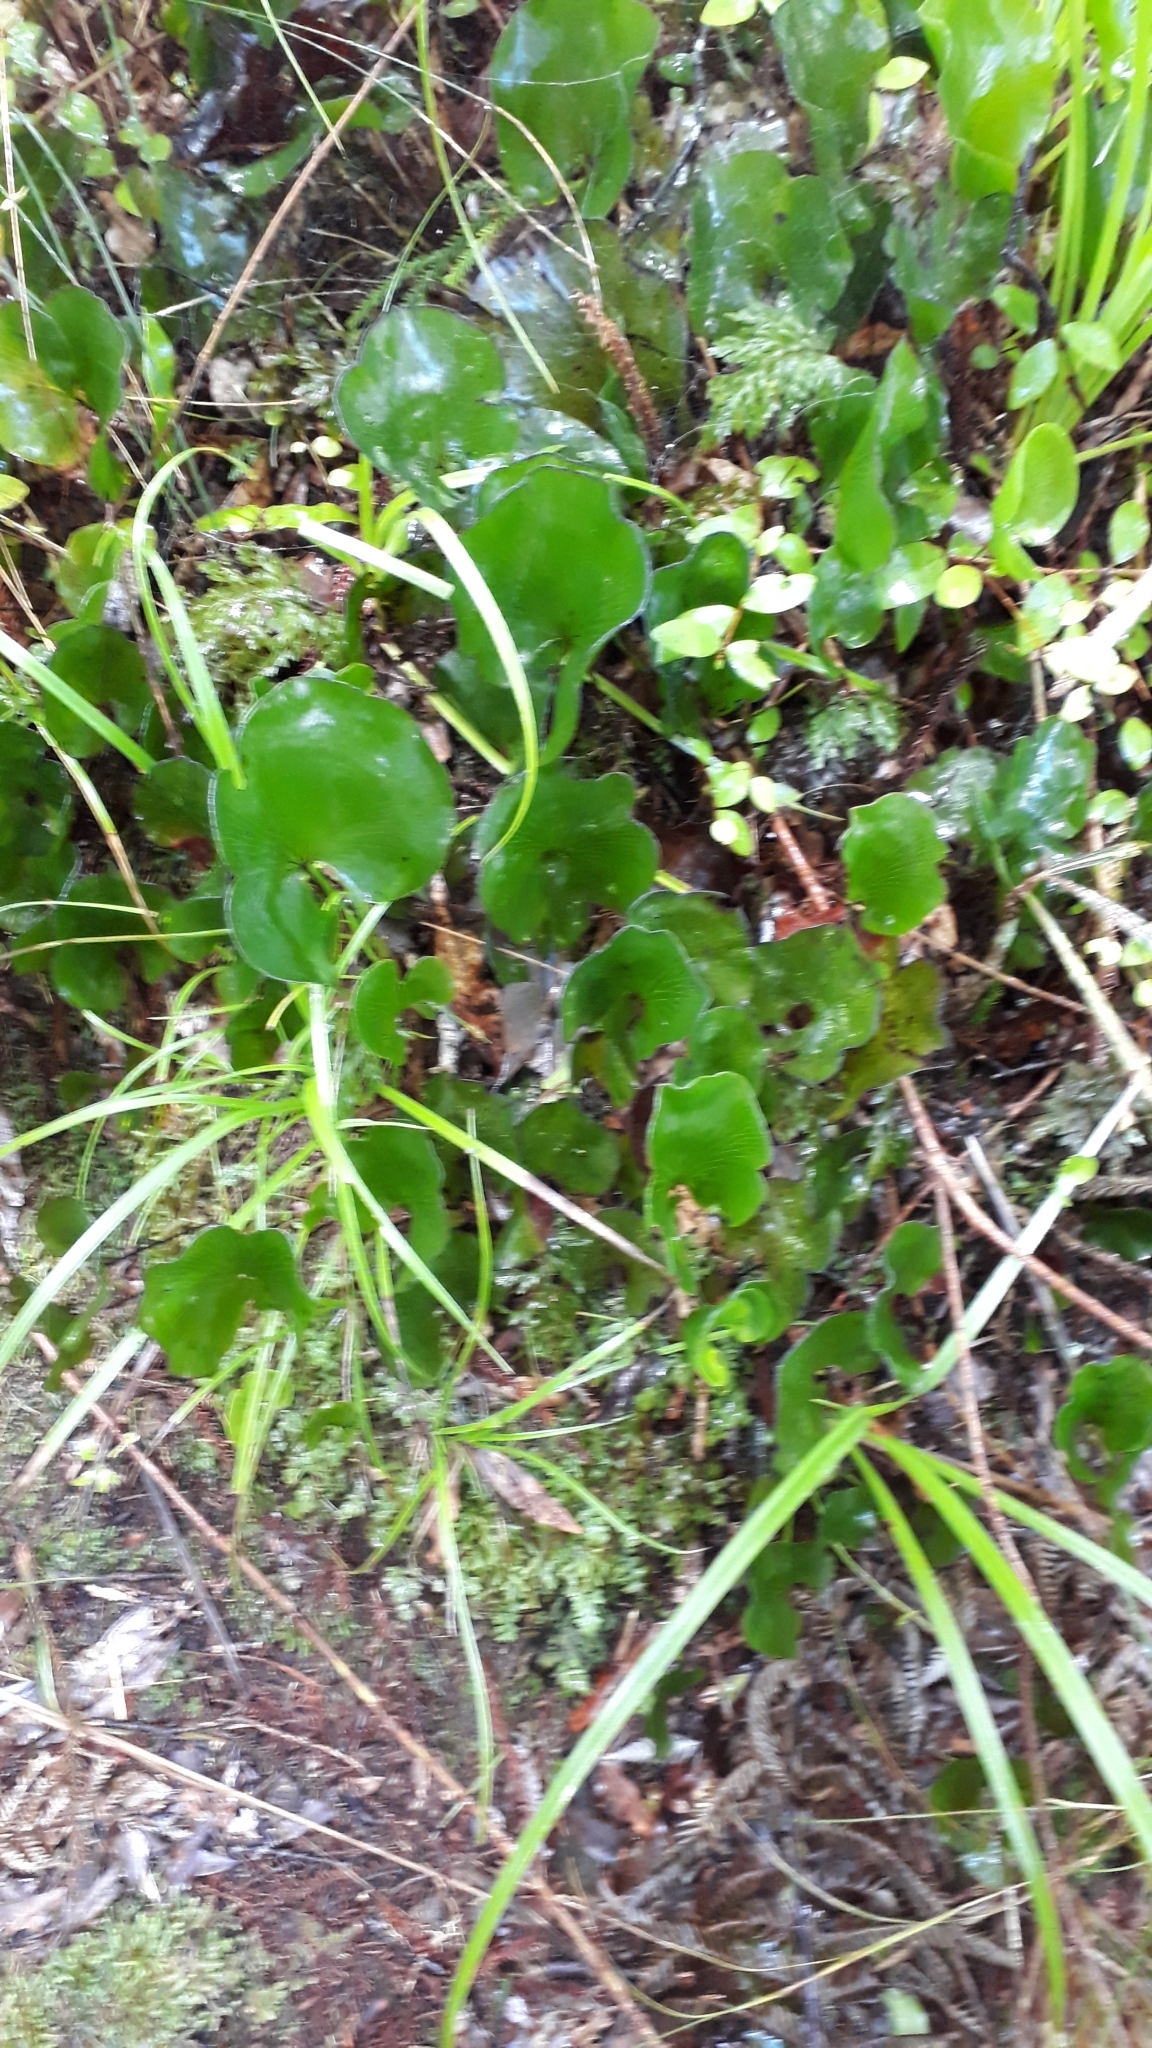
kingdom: Plantae
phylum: Tracheophyta
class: Polypodiopsida
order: Hymenophyllales
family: Hymenophyllaceae
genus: Hymenophyllum
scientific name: Hymenophyllum nephrophyllum
